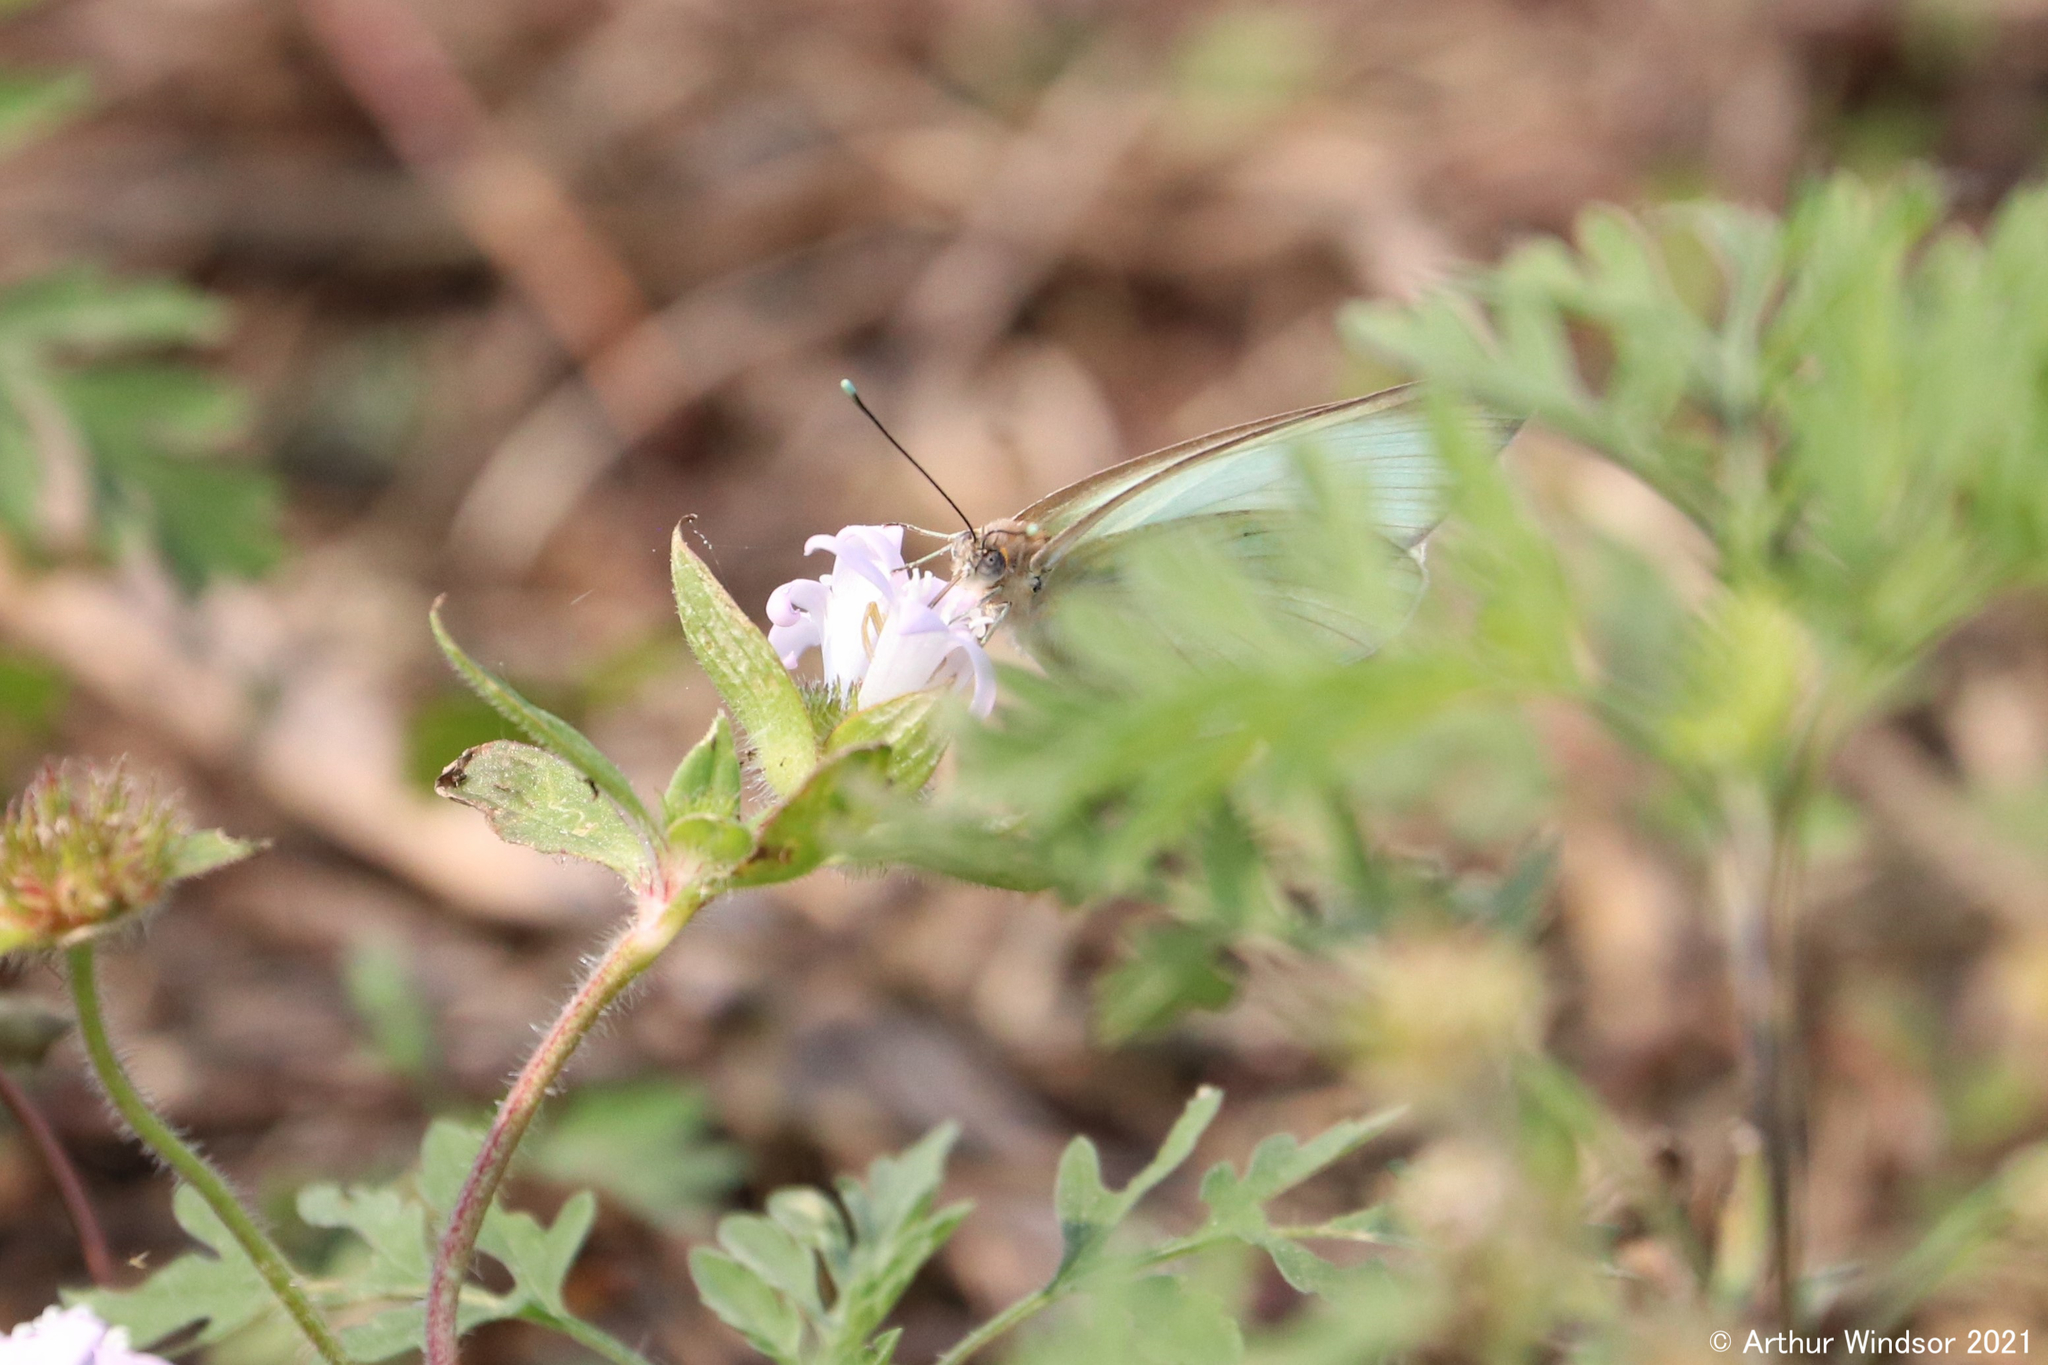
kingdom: Animalia
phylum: Arthropoda
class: Insecta
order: Lepidoptera
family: Pieridae
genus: Ascia
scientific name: Ascia monuste
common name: Great southern white
